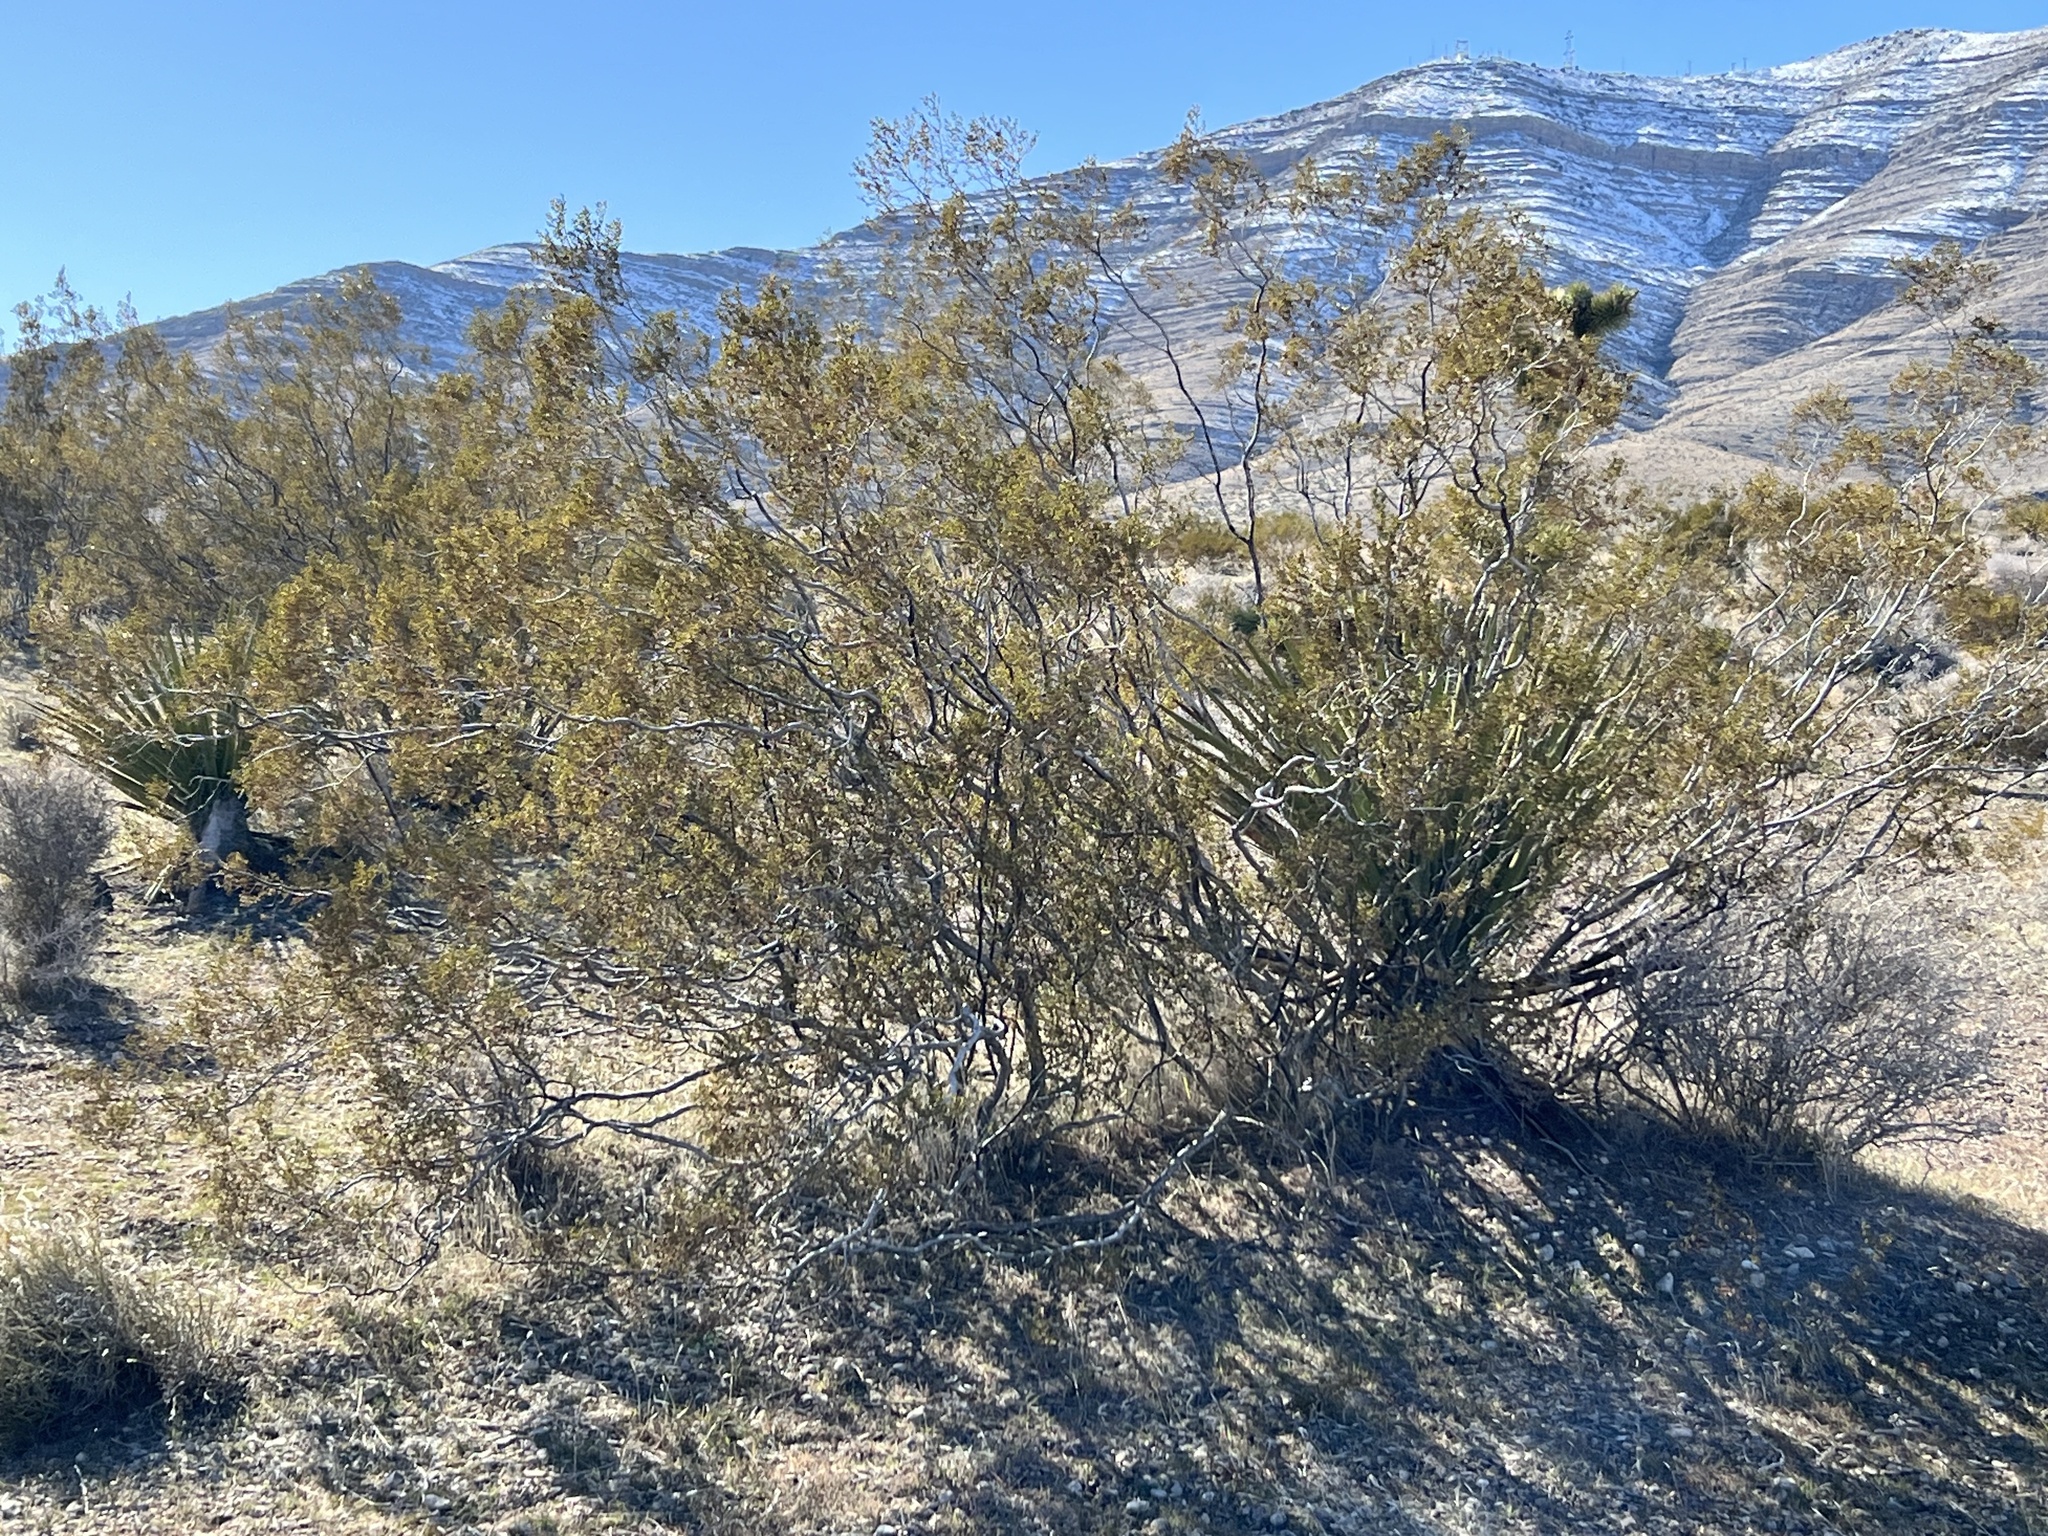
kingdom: Plantae
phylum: Tracheophyta
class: Magnoliopsida
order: Zygophyllales
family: Zygophyllaceae
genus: Larrea
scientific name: Larrea tridentata
